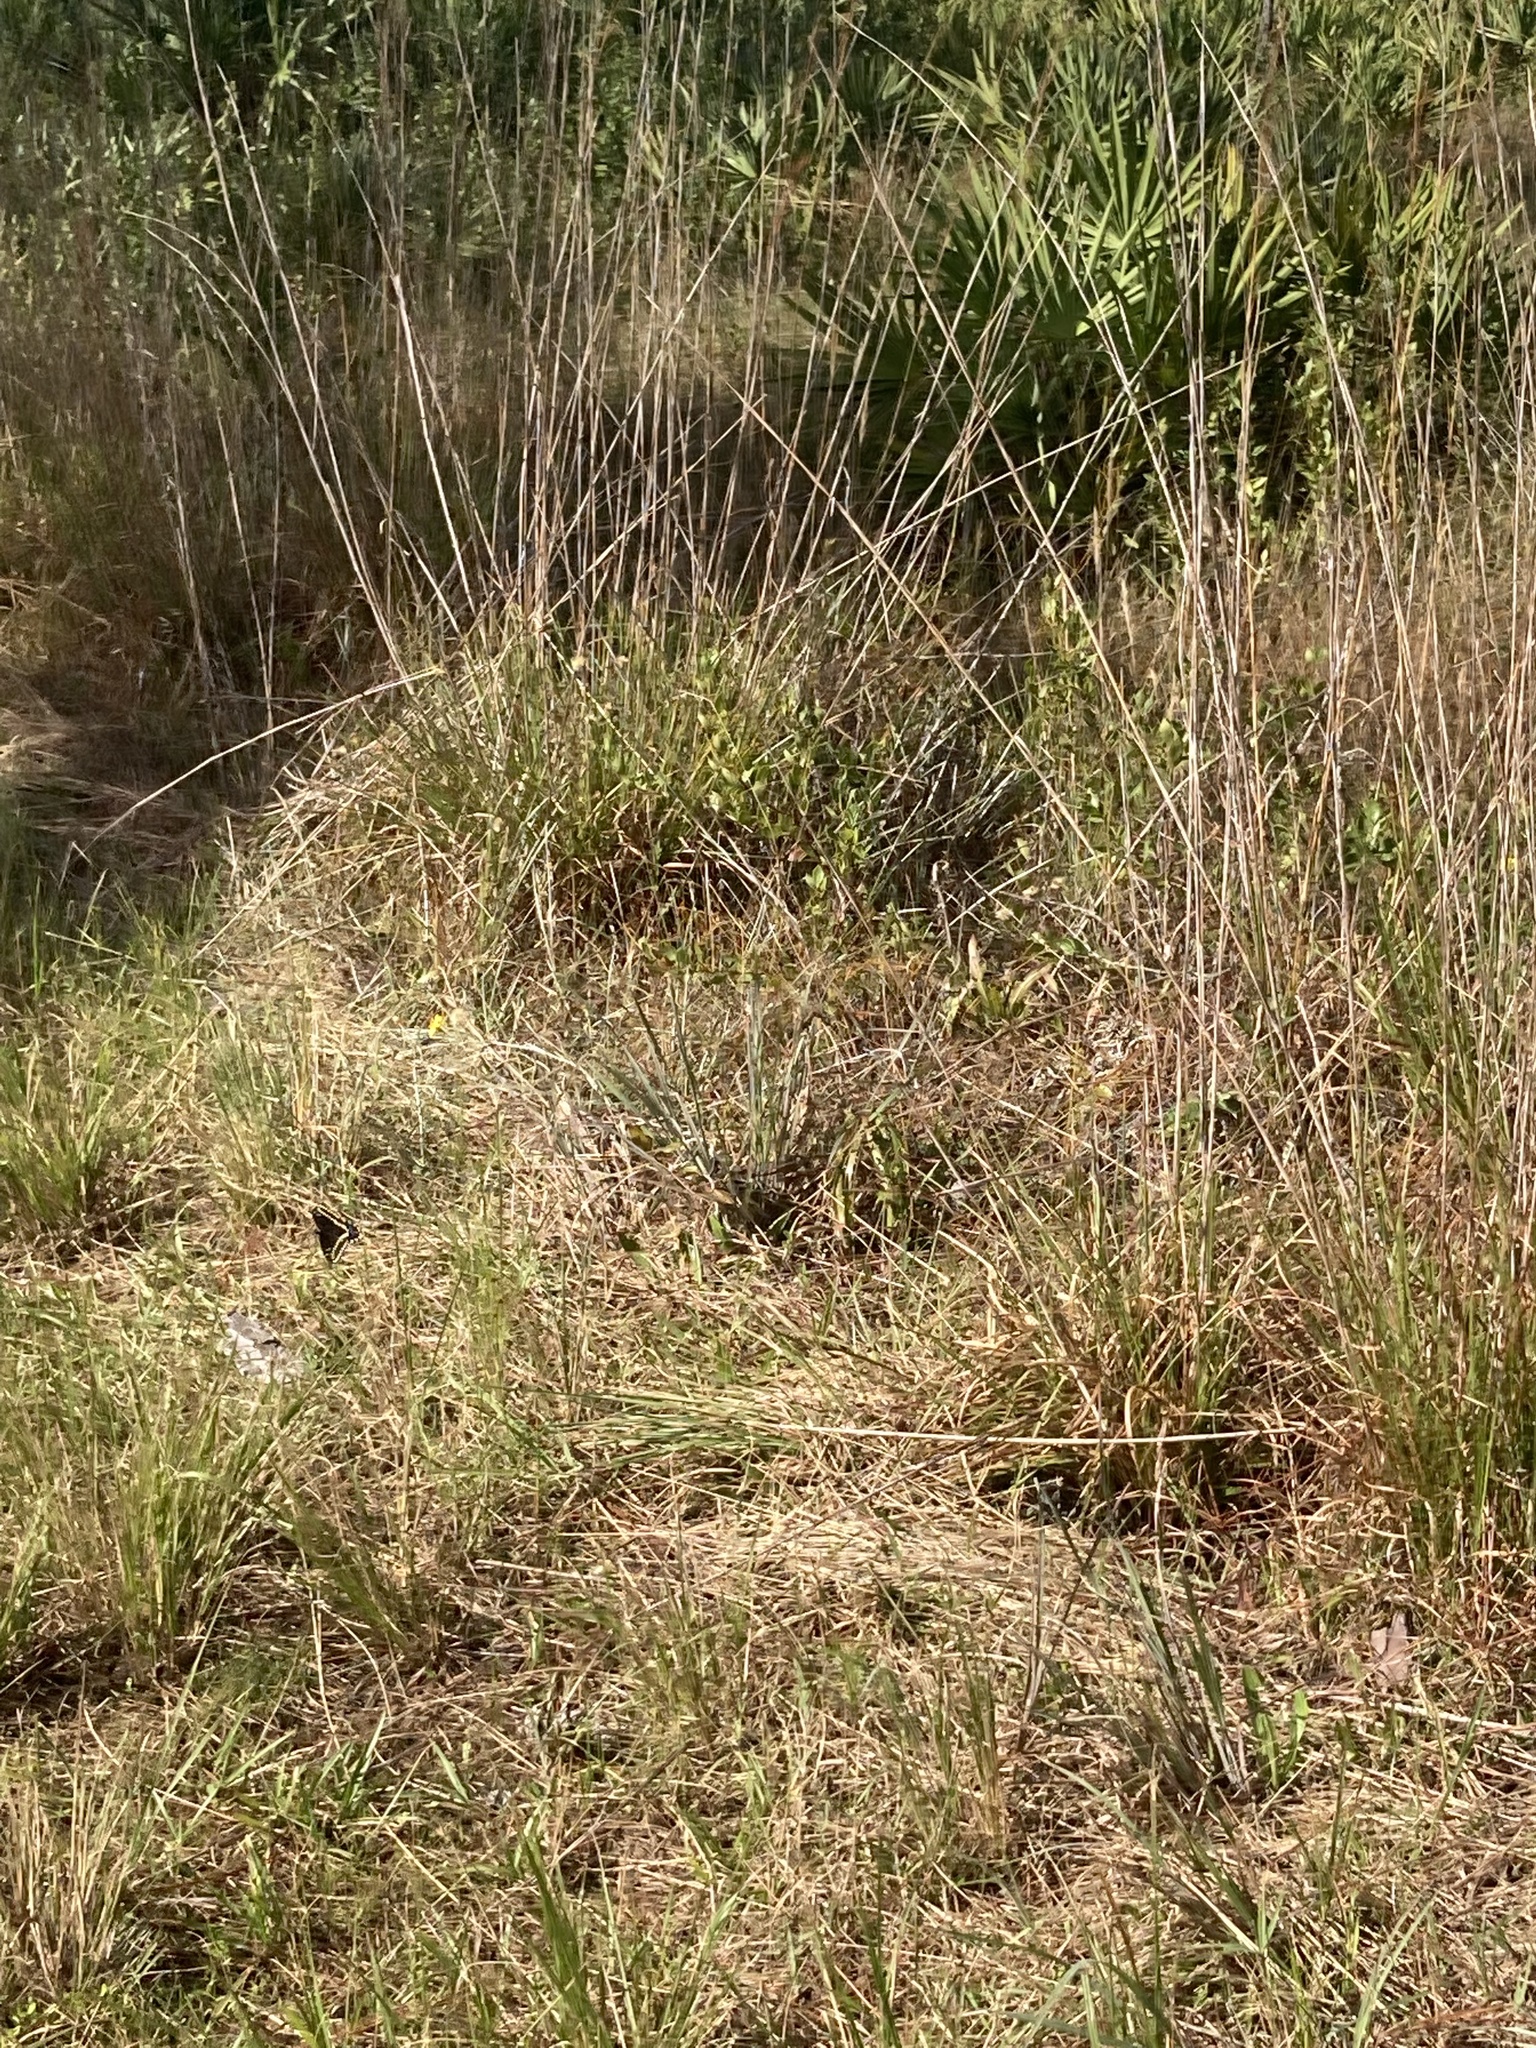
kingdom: Plantae
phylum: Tracheophyta
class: Magnoliopsida
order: Lamiales
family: Lentibulariaceae
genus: Pinguicula
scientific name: Pinguicula lutea
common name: Yellow butterwort
